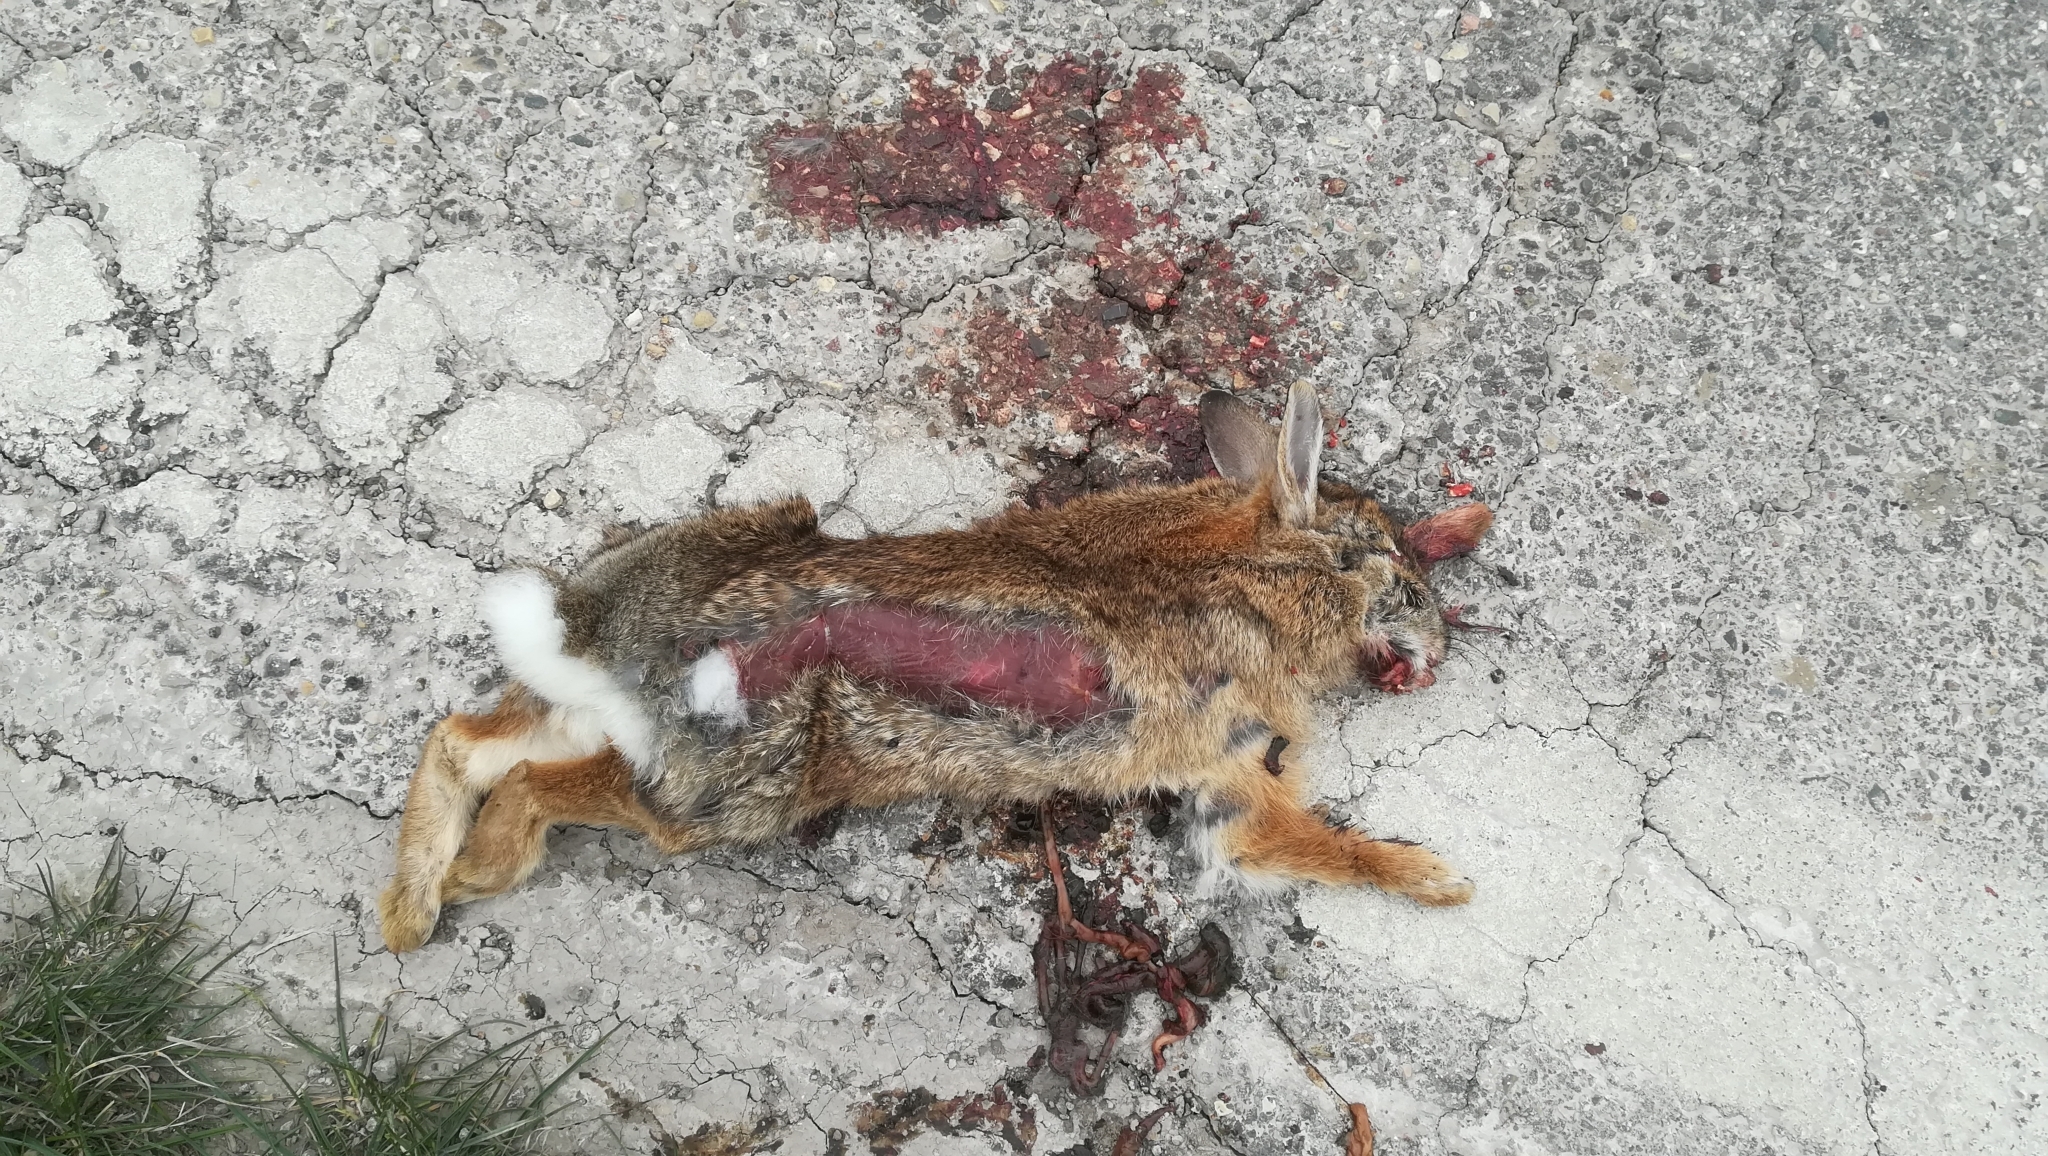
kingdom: Animalia
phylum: Chordata
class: Mammalia
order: Lagomorpha
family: Leporidae
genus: Lepus
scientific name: Lepus europaeus
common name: European hare
